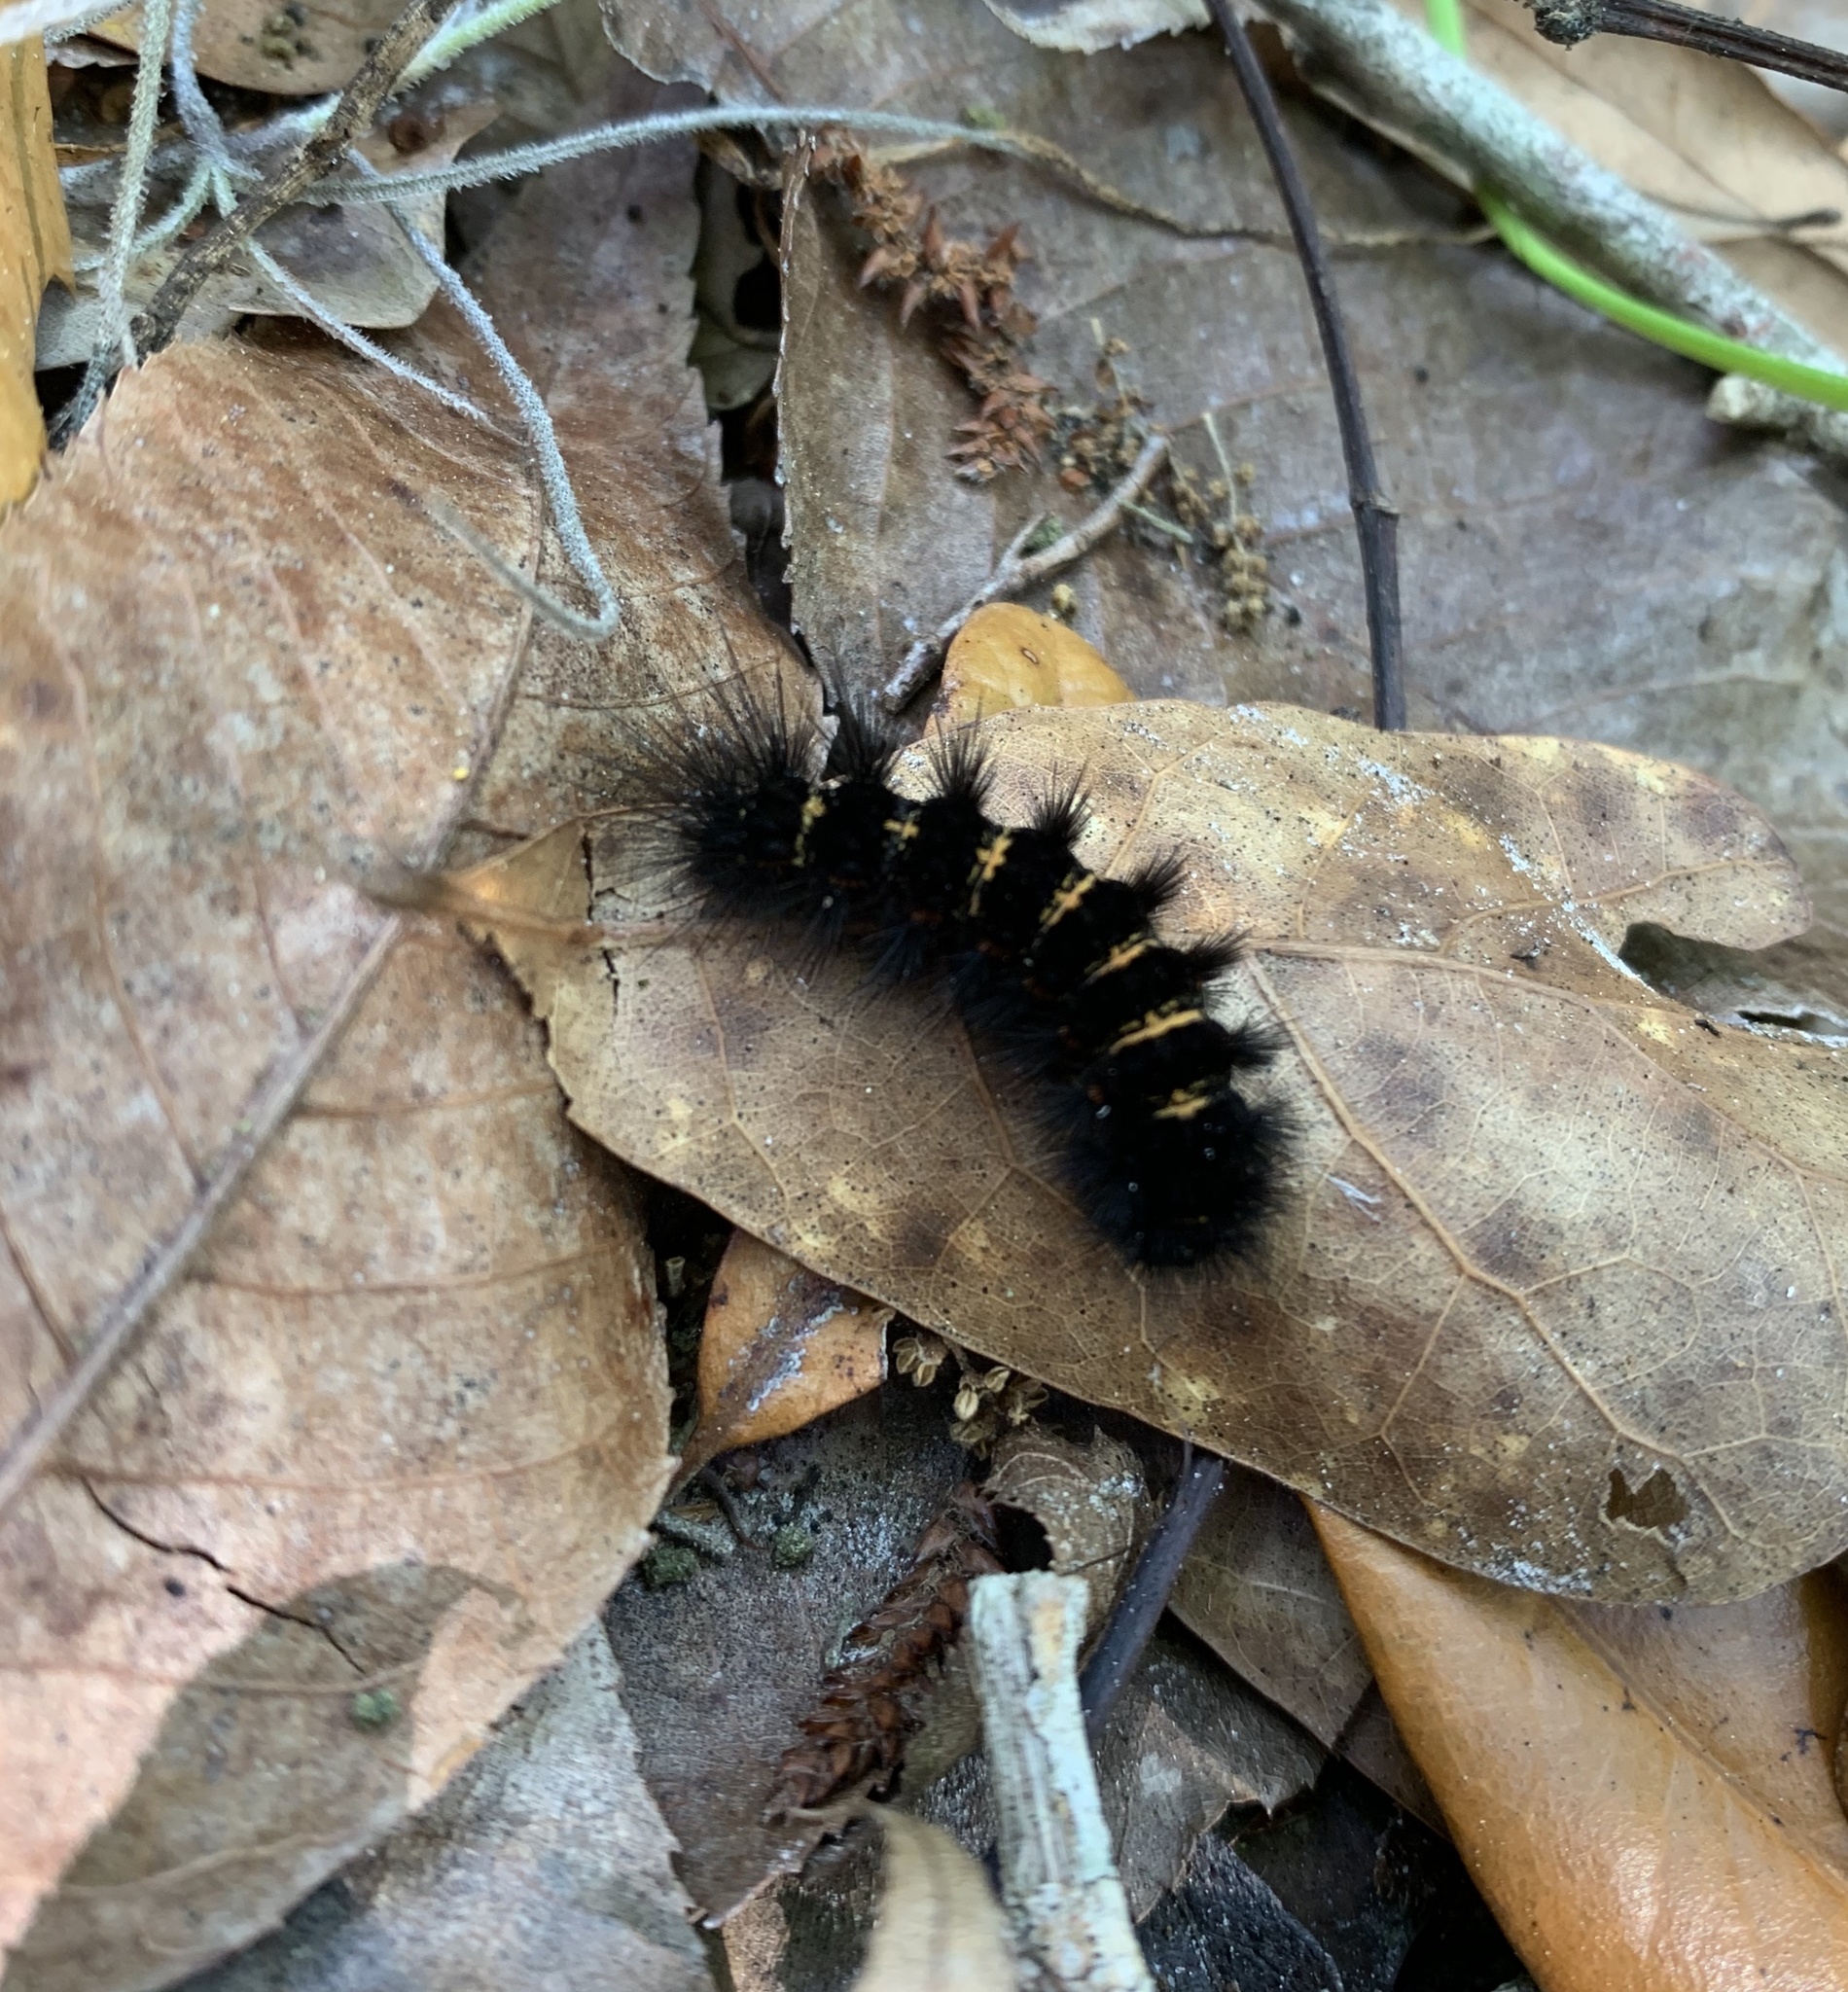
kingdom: Animalia
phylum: Arthropoda
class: Insecta
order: Lepidoptera
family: Erebidae
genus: Spilosoma
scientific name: Spilosoma congrua
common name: Agreeable tiger moth
